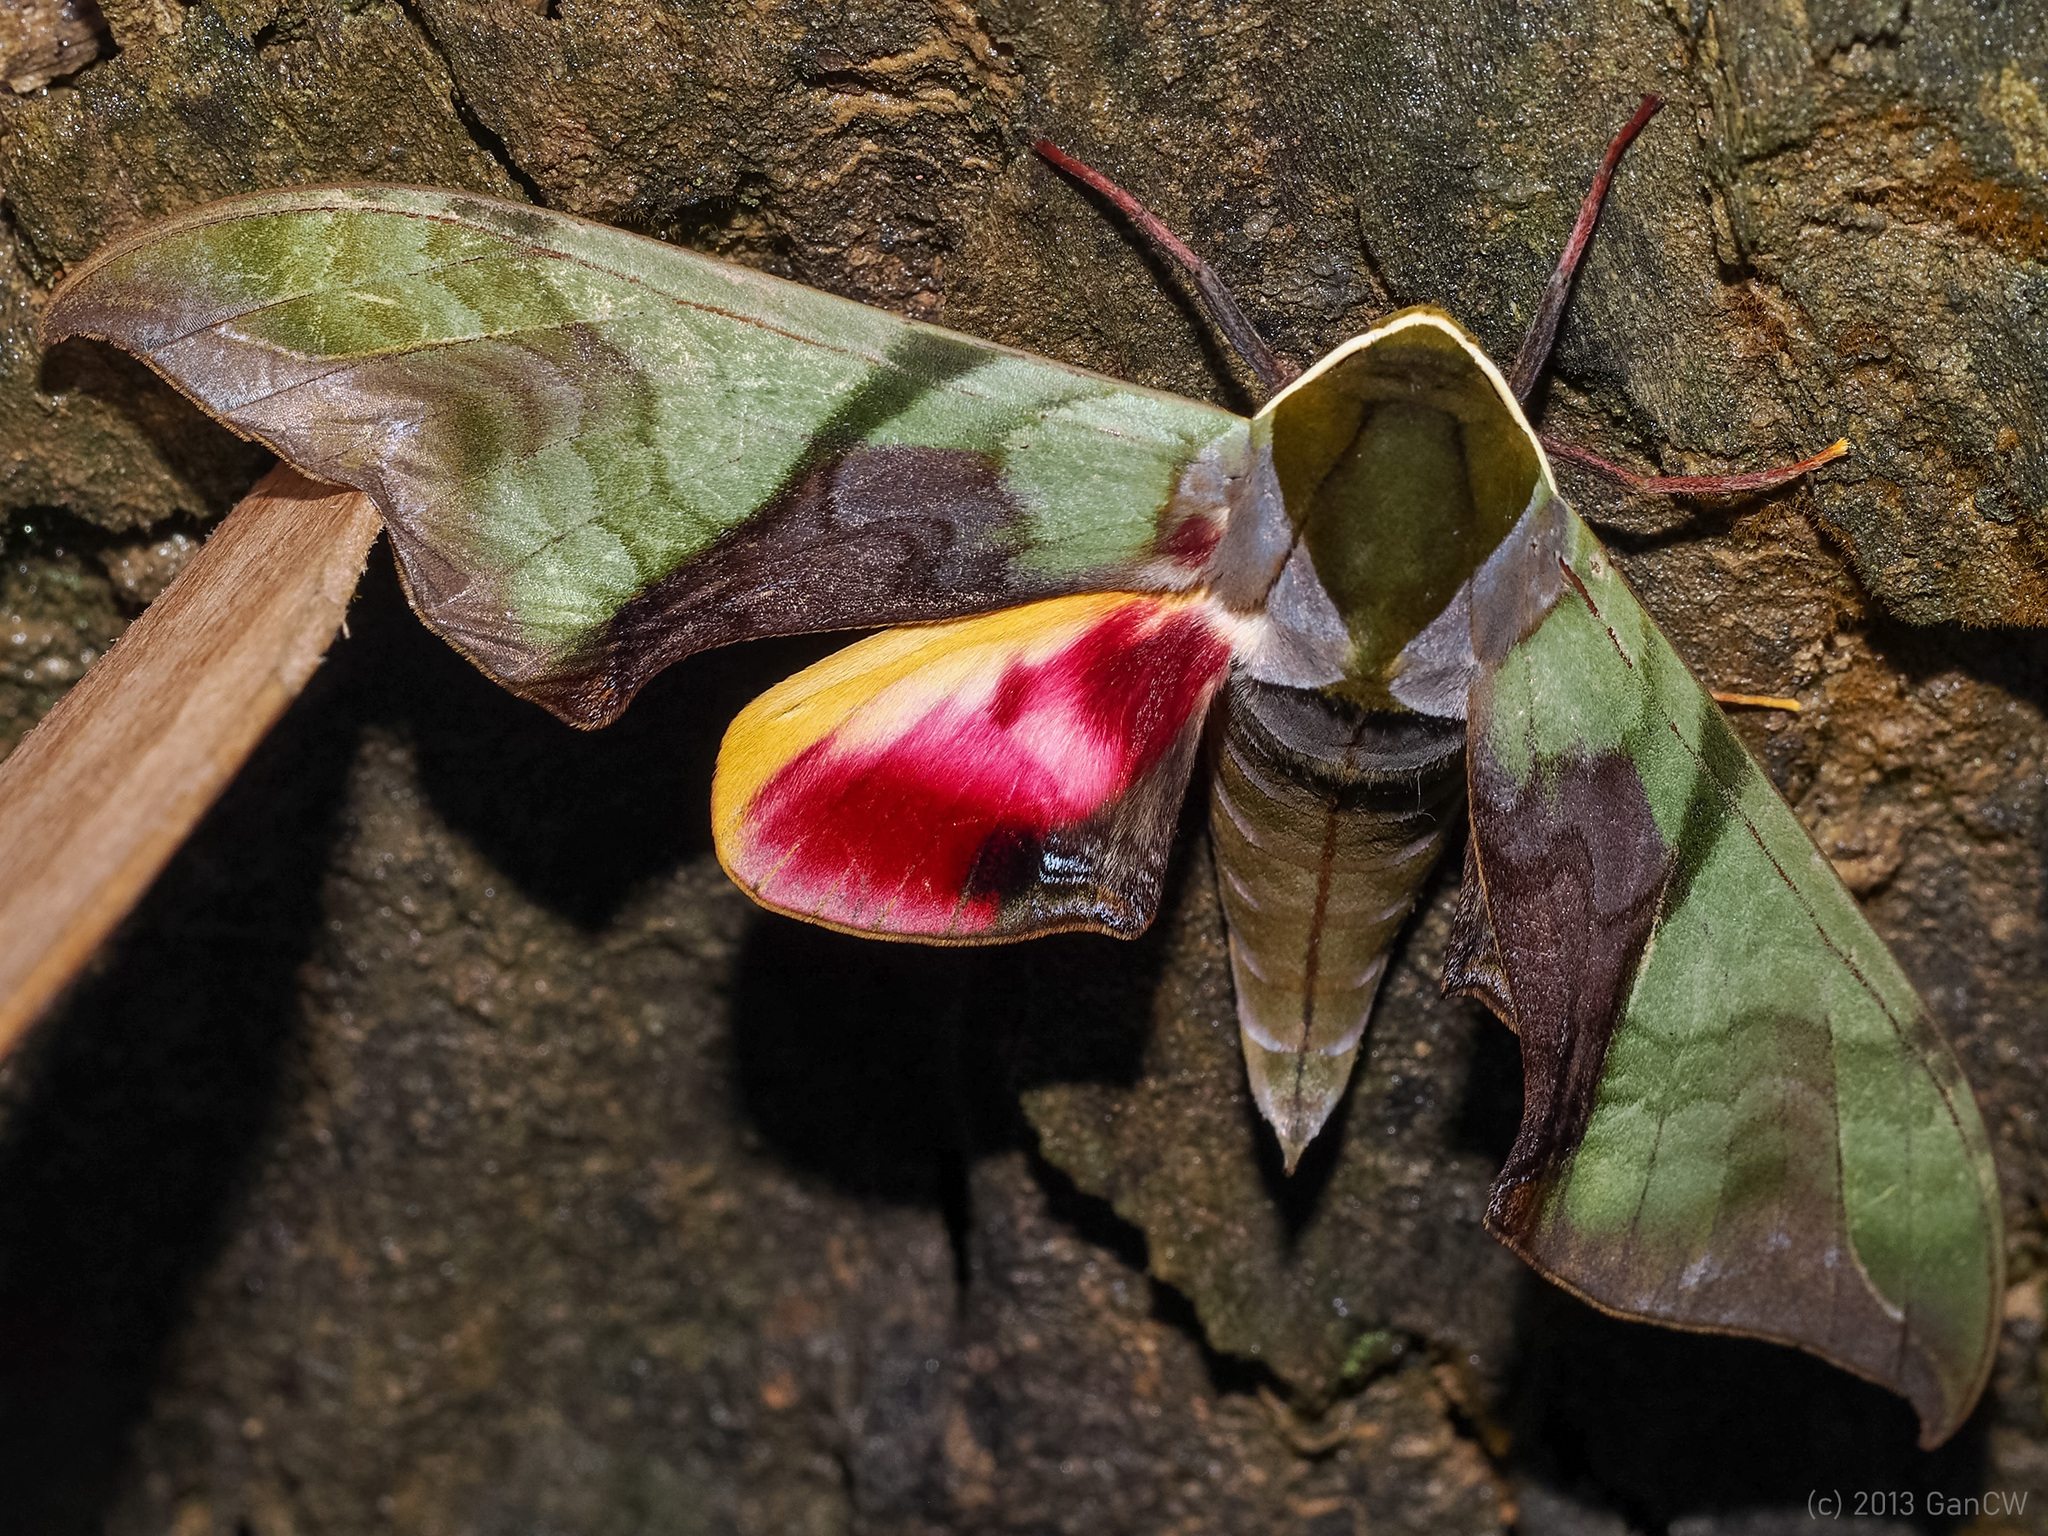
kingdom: Animalia
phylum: Arthropoda
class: Insecta
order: Lepidoptera
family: Sphingidae
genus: Callambulyx
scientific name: Callambulyx amanda
